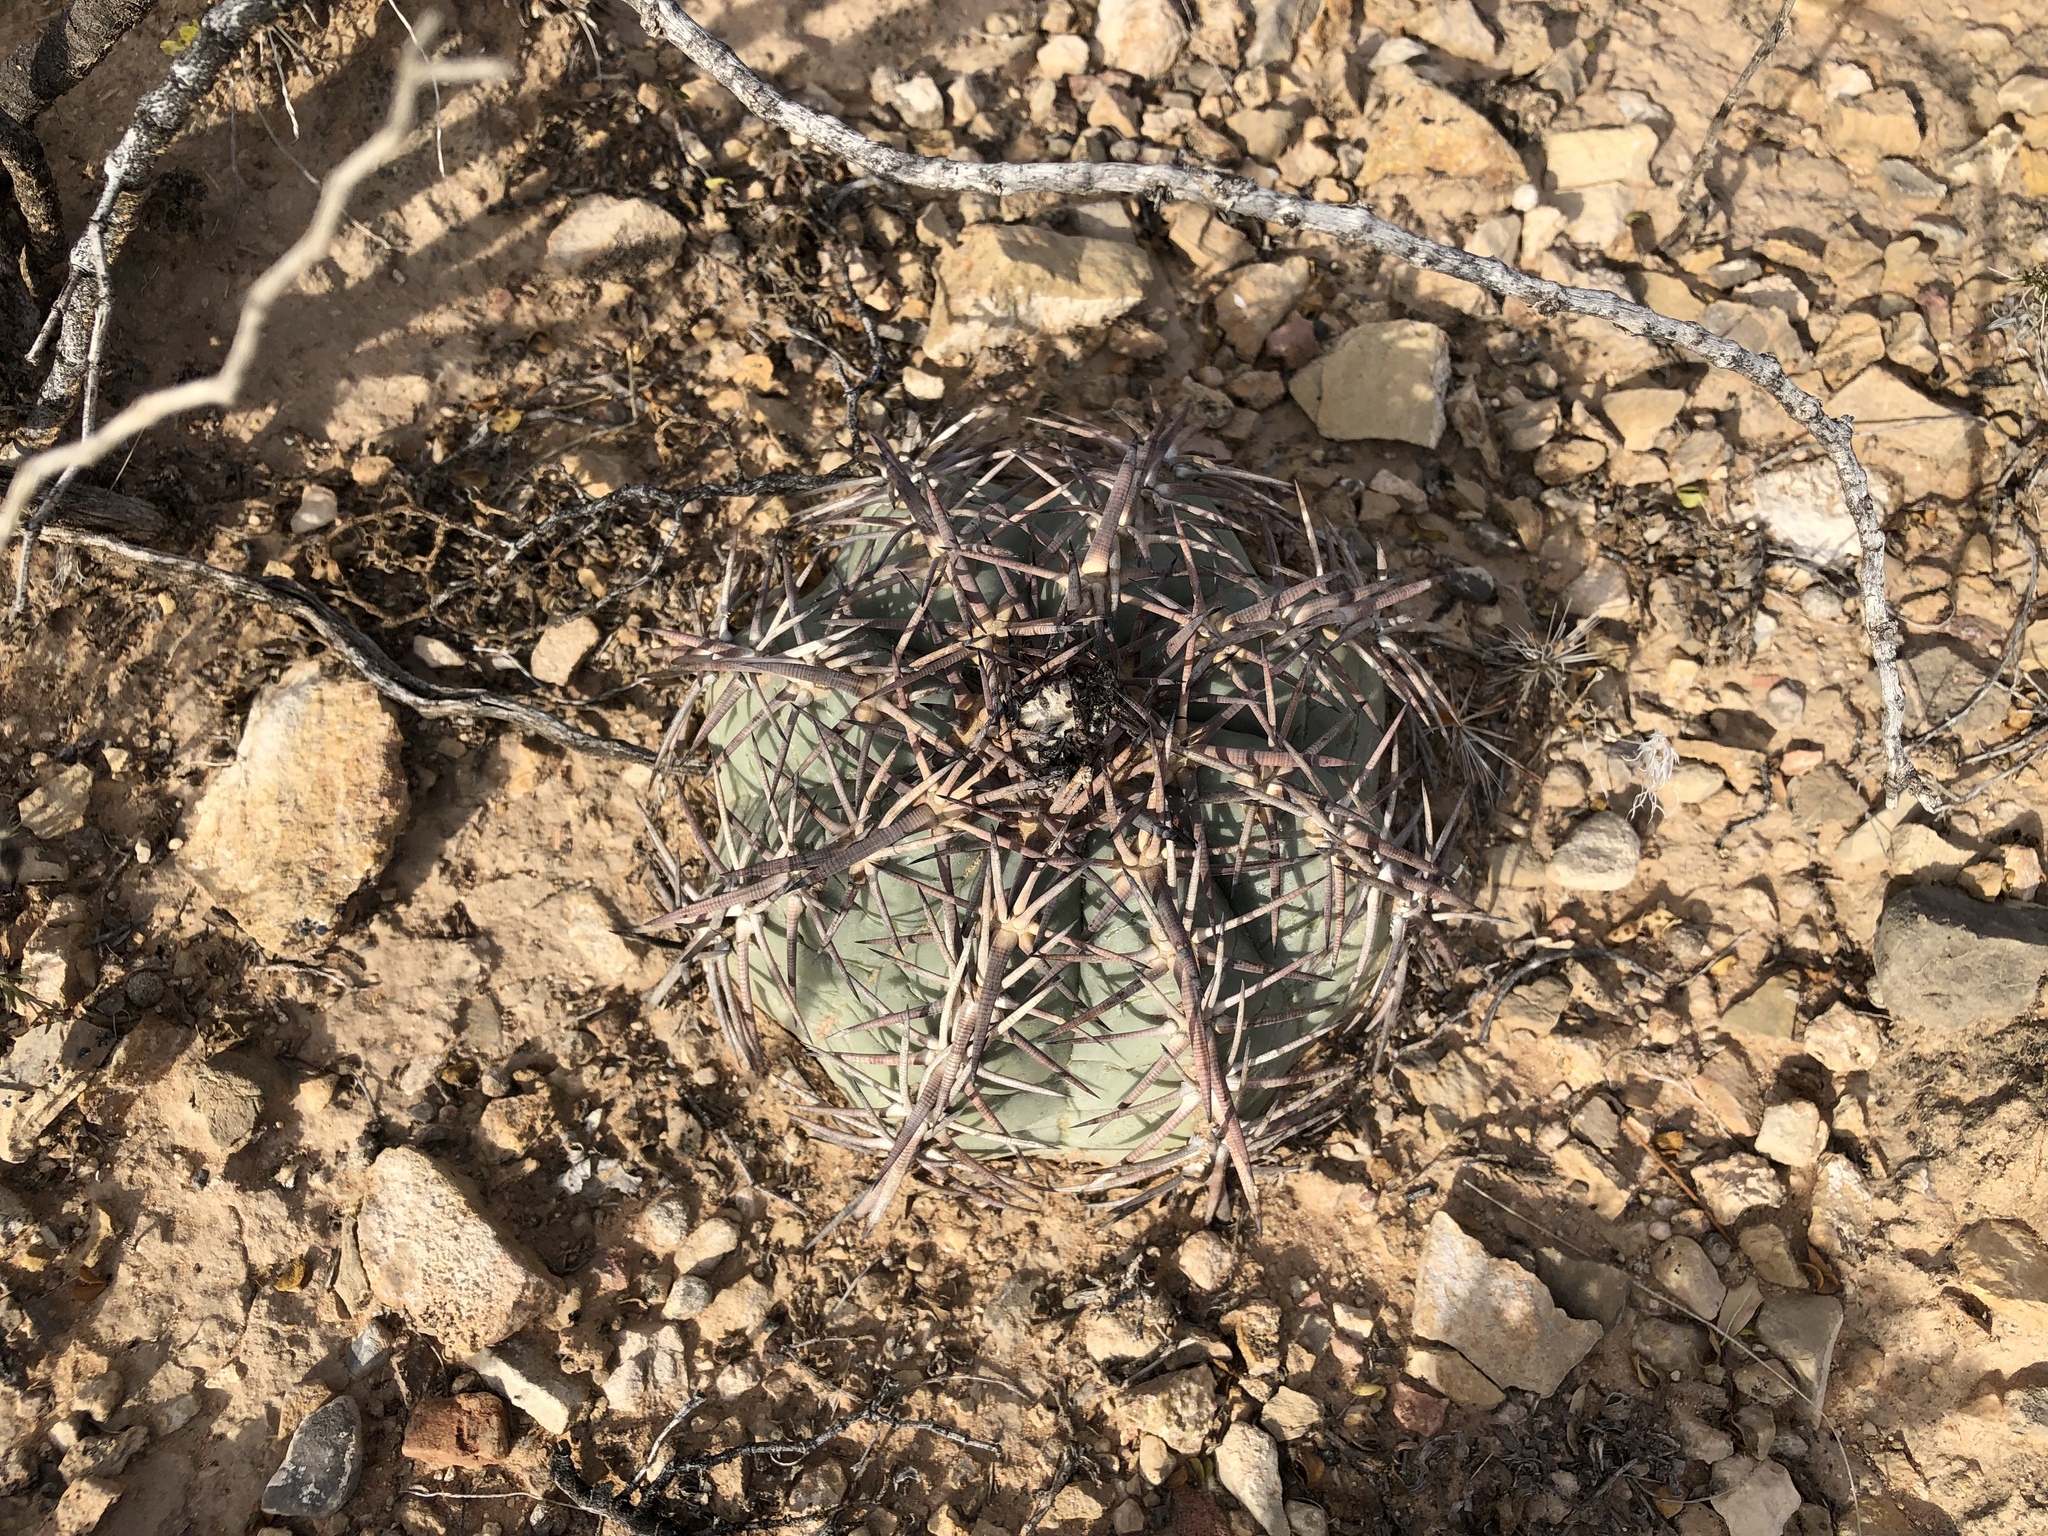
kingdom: Plantae
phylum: Tracheophyta
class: Magnoliopsida
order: Caryophyllales
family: Cactaceae
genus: Echinocactus
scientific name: Echinocactus horizonthalonius
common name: Devilshead
